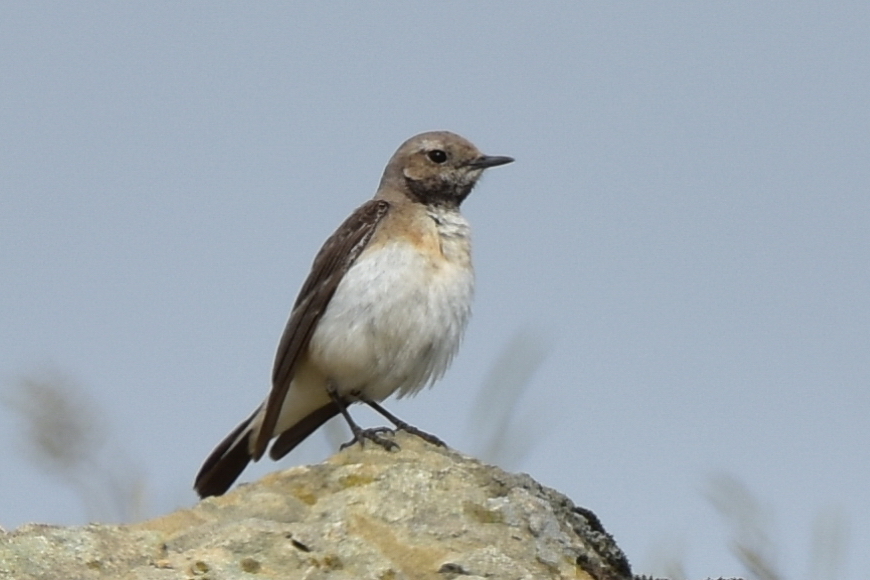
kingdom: Animalia
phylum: Chordata
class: Aves
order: Passeriformes
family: Muscicapidae
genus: Oenanthe
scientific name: Oenanthe pleschanka
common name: Pied wheatear
